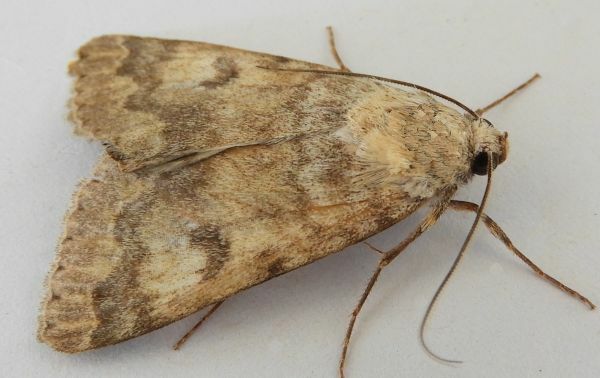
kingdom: Animalia
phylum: Arthropoda
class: Insecta
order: Lepidoptera
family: Erebidae
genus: Drasteria
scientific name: Drasteria inepta
